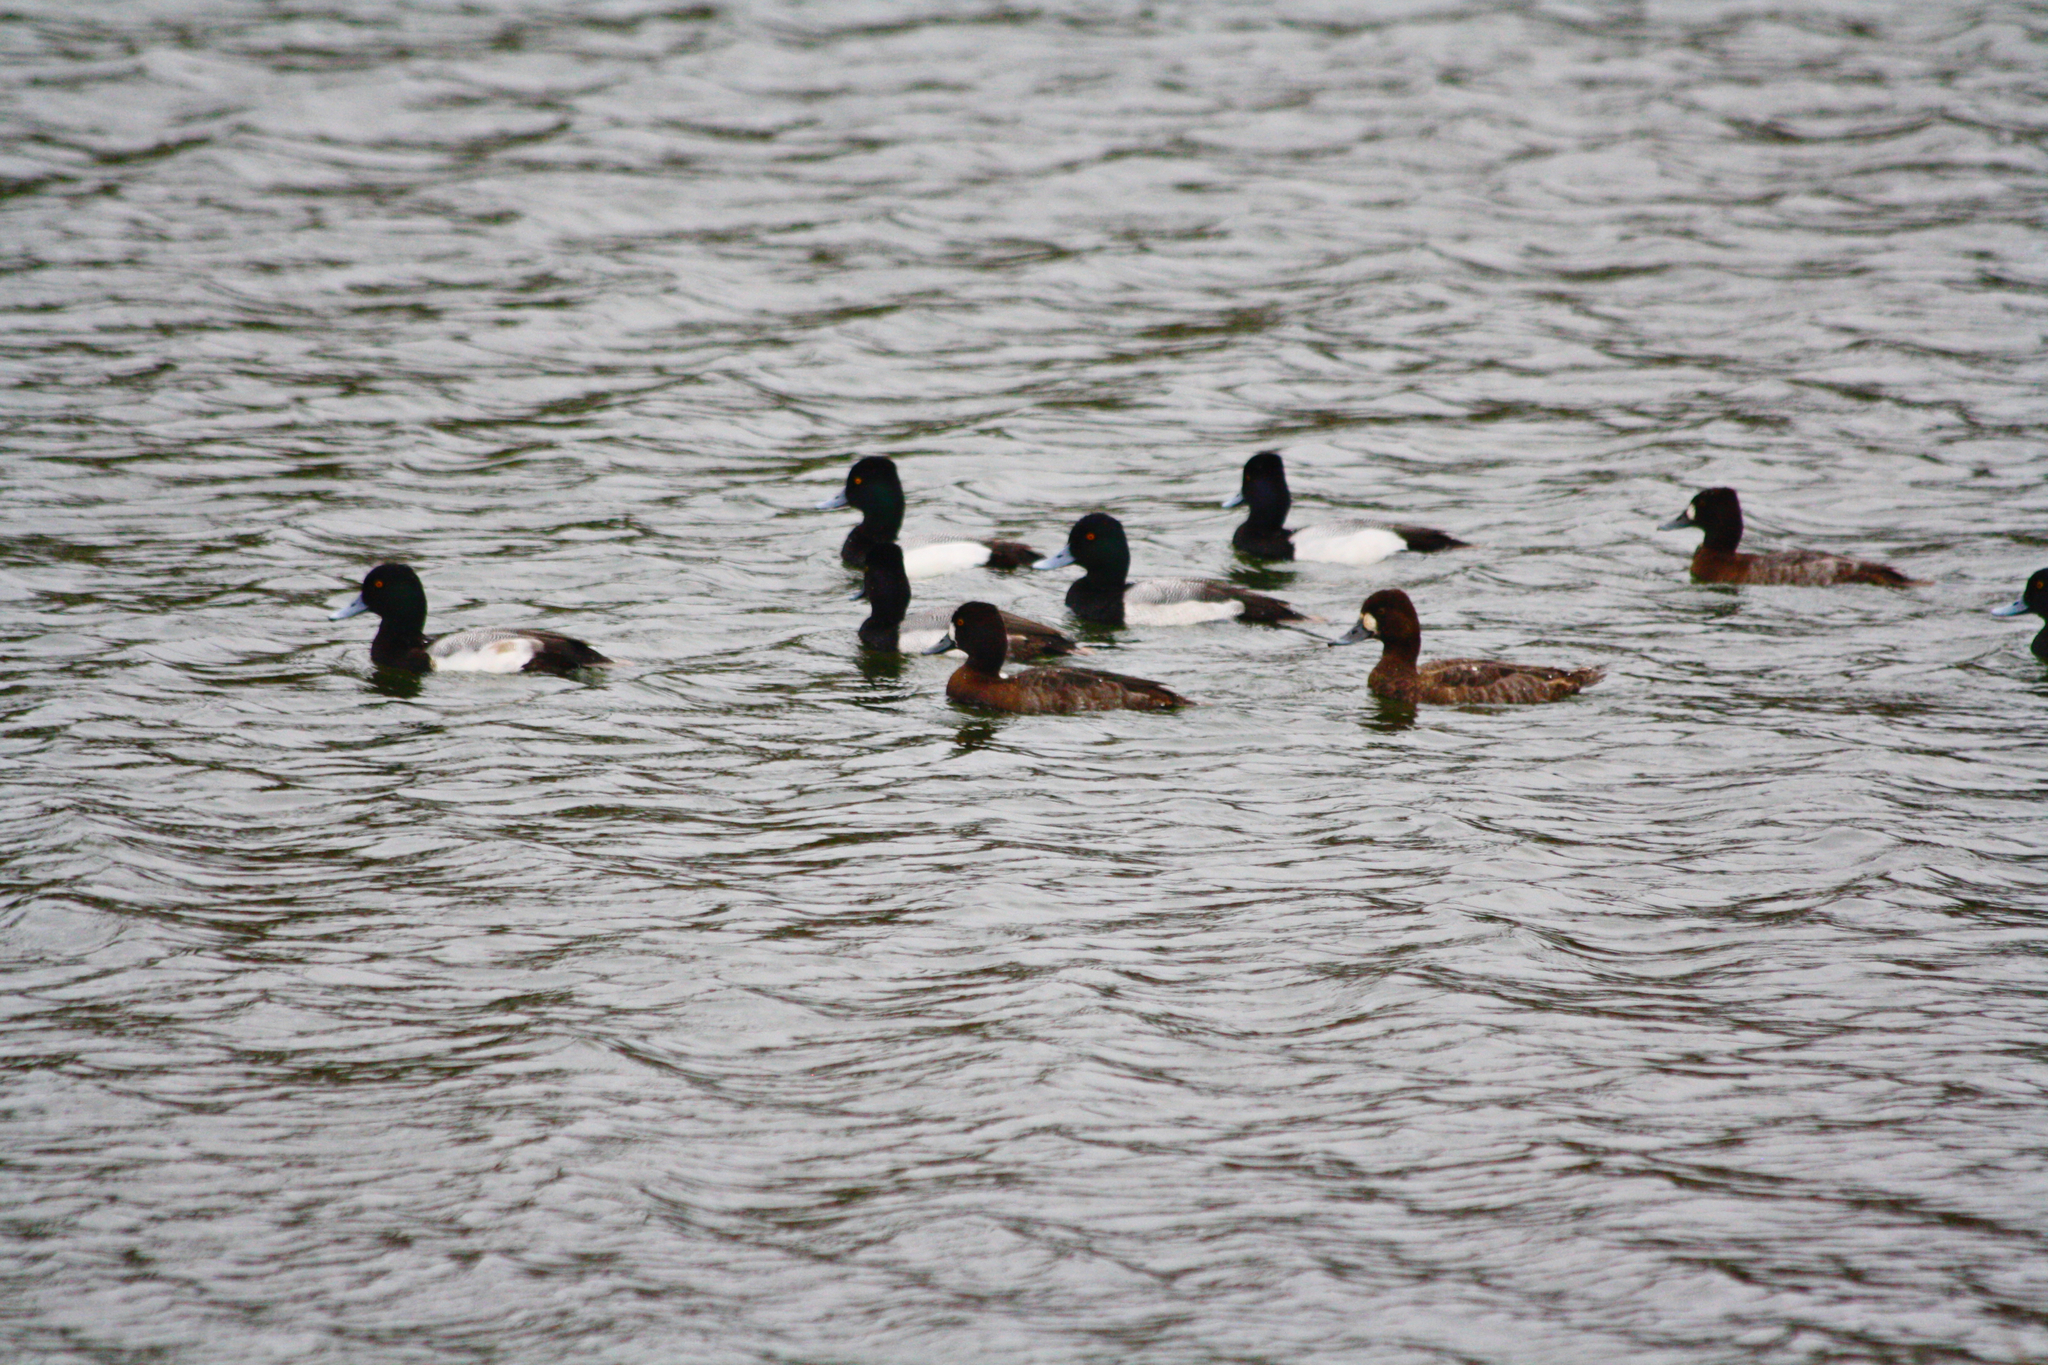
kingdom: Animalia
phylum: Chordata
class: Aves
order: Anseriformes
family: Anatidae
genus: Aythya
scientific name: Aythya affinis
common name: Lesser scaup
